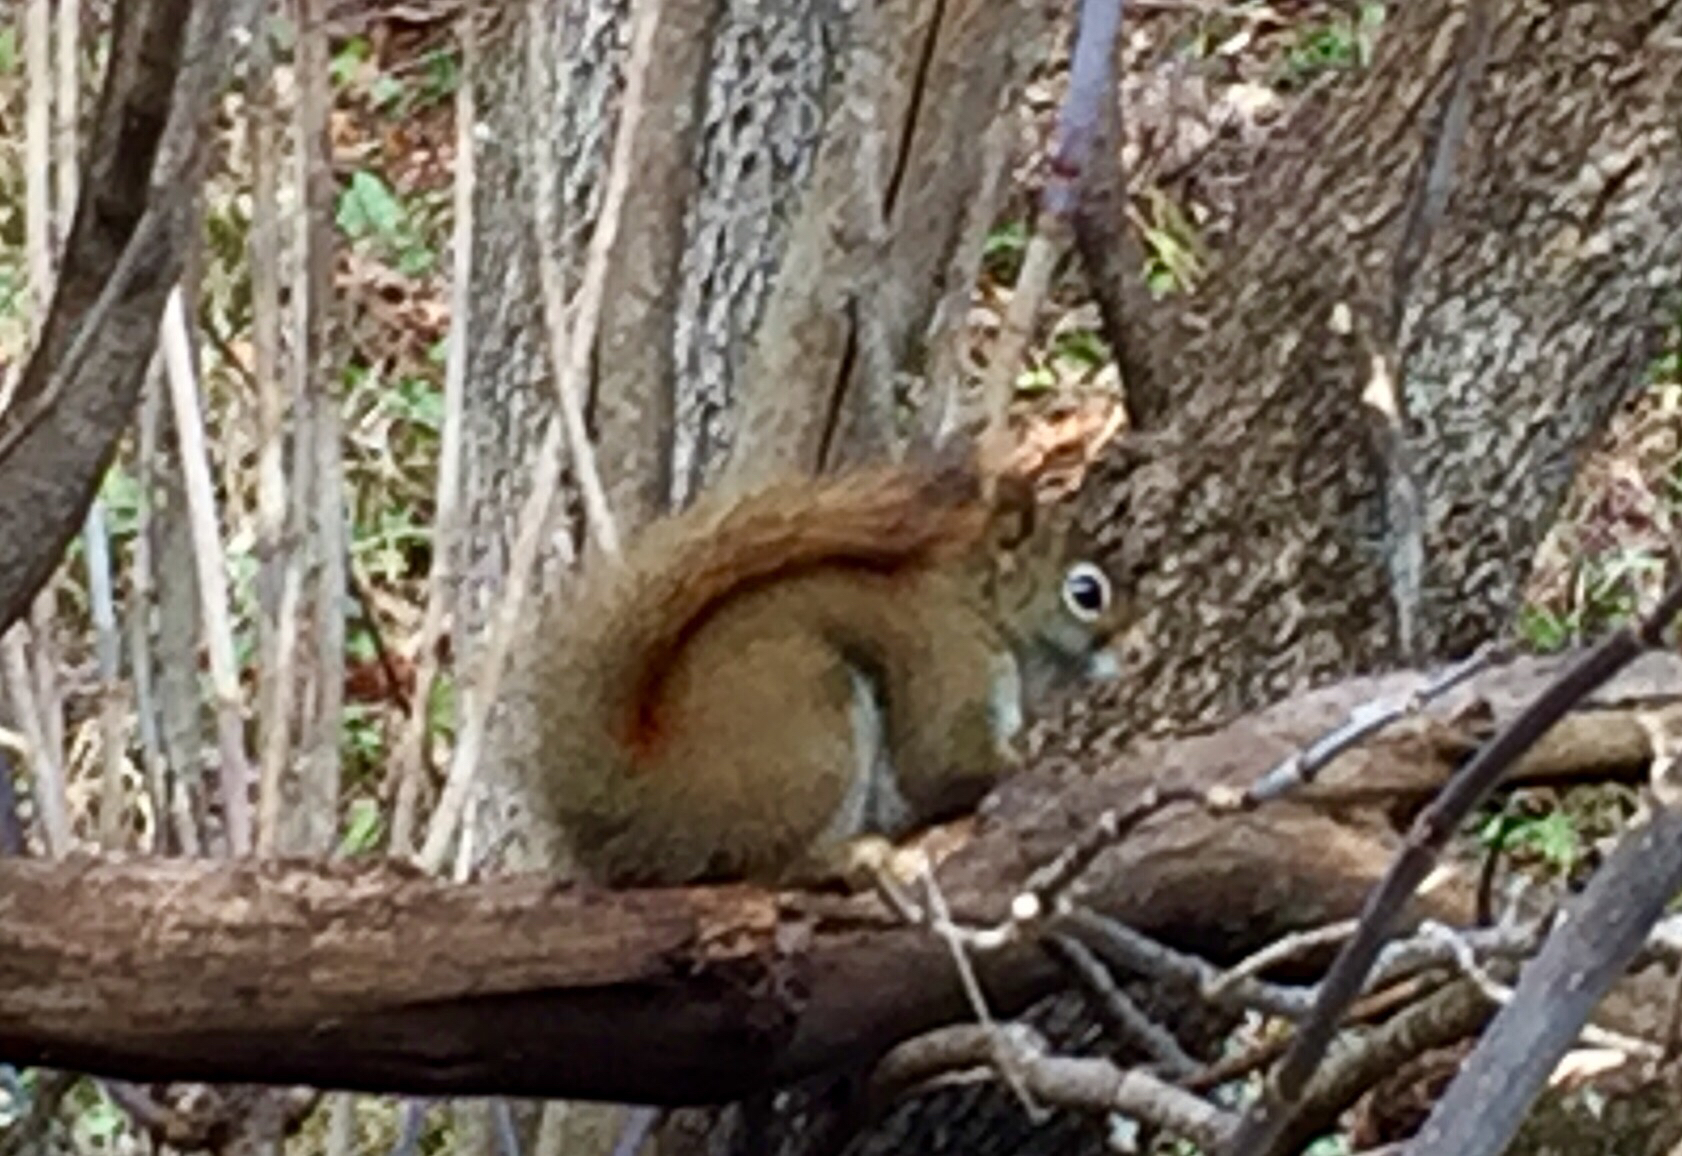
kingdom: Animalia
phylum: Chordata
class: Mammalia
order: Rodentia
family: Sciuridae
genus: Tamiasciurus
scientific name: Tamiasciurus hudsonicus
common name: Red squirrel
